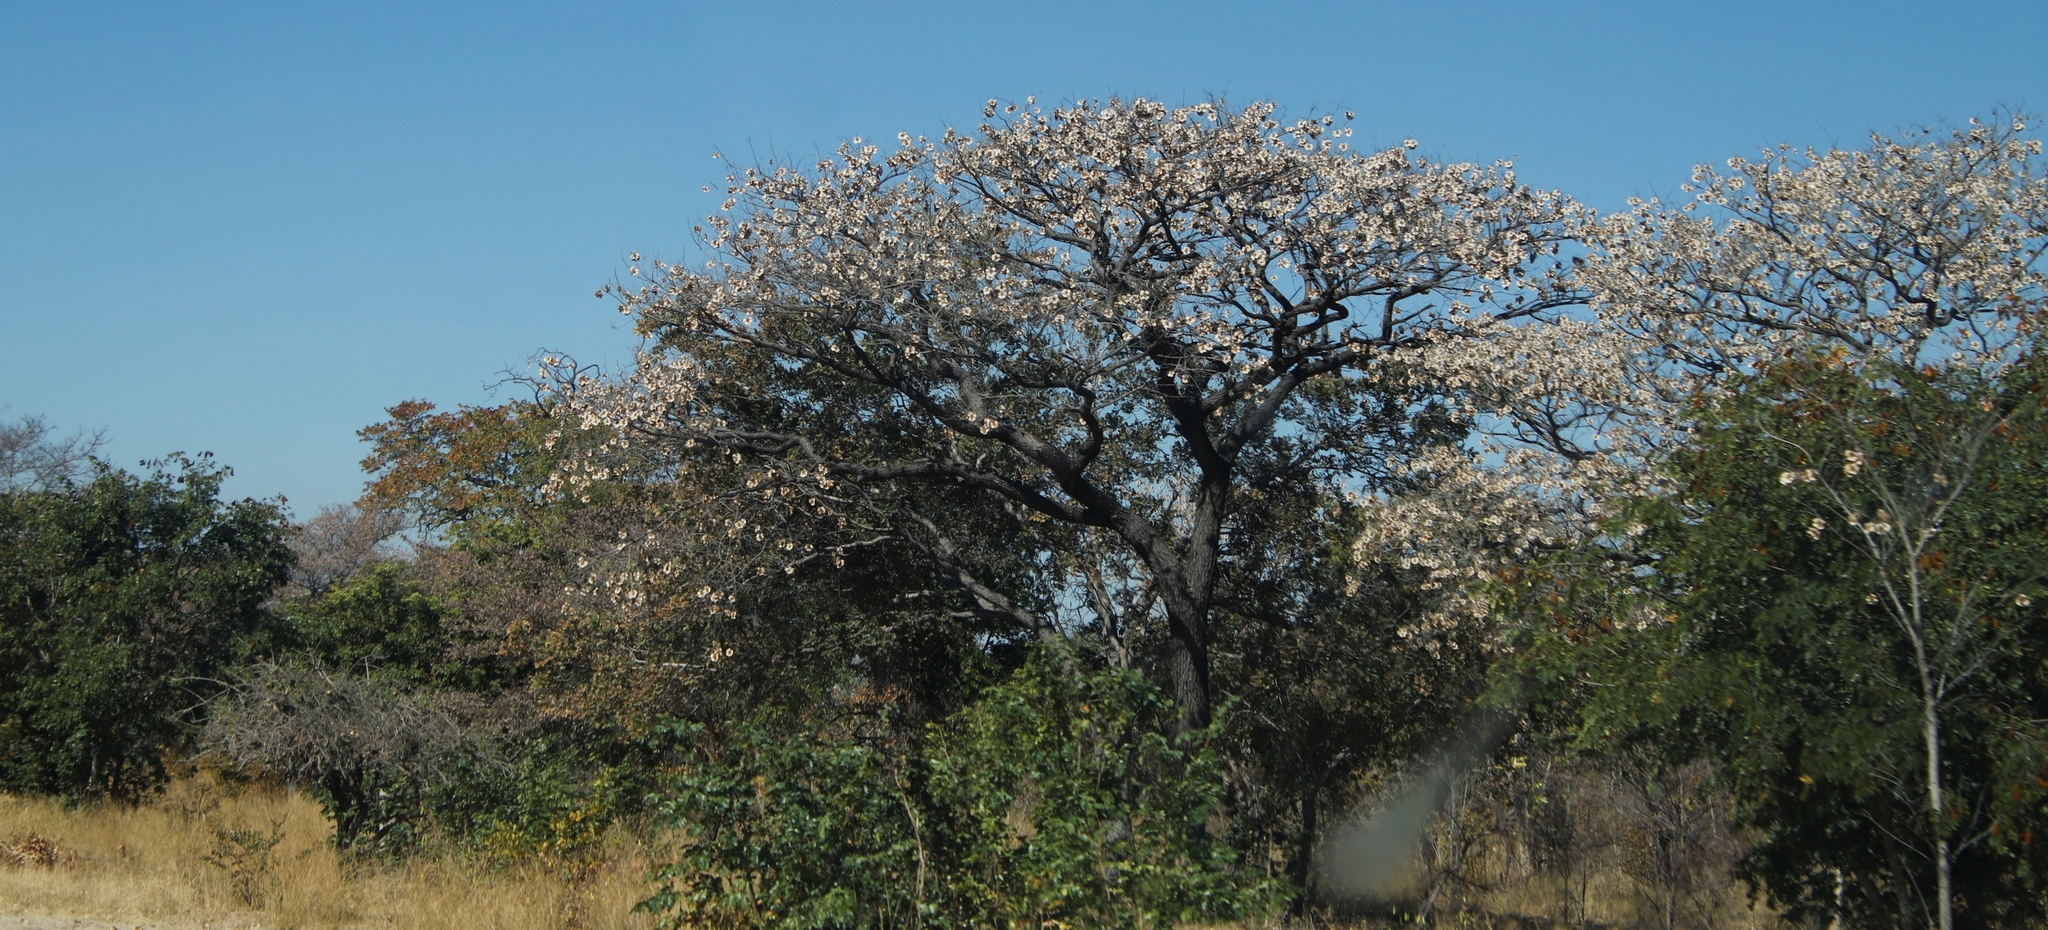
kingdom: Plantae
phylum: Tracheophyta
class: Magnoliopsida
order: Fabales
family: Fabaceae
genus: Pterocarpus
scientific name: Pterocarpus angolensis
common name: Bloodwood tree
